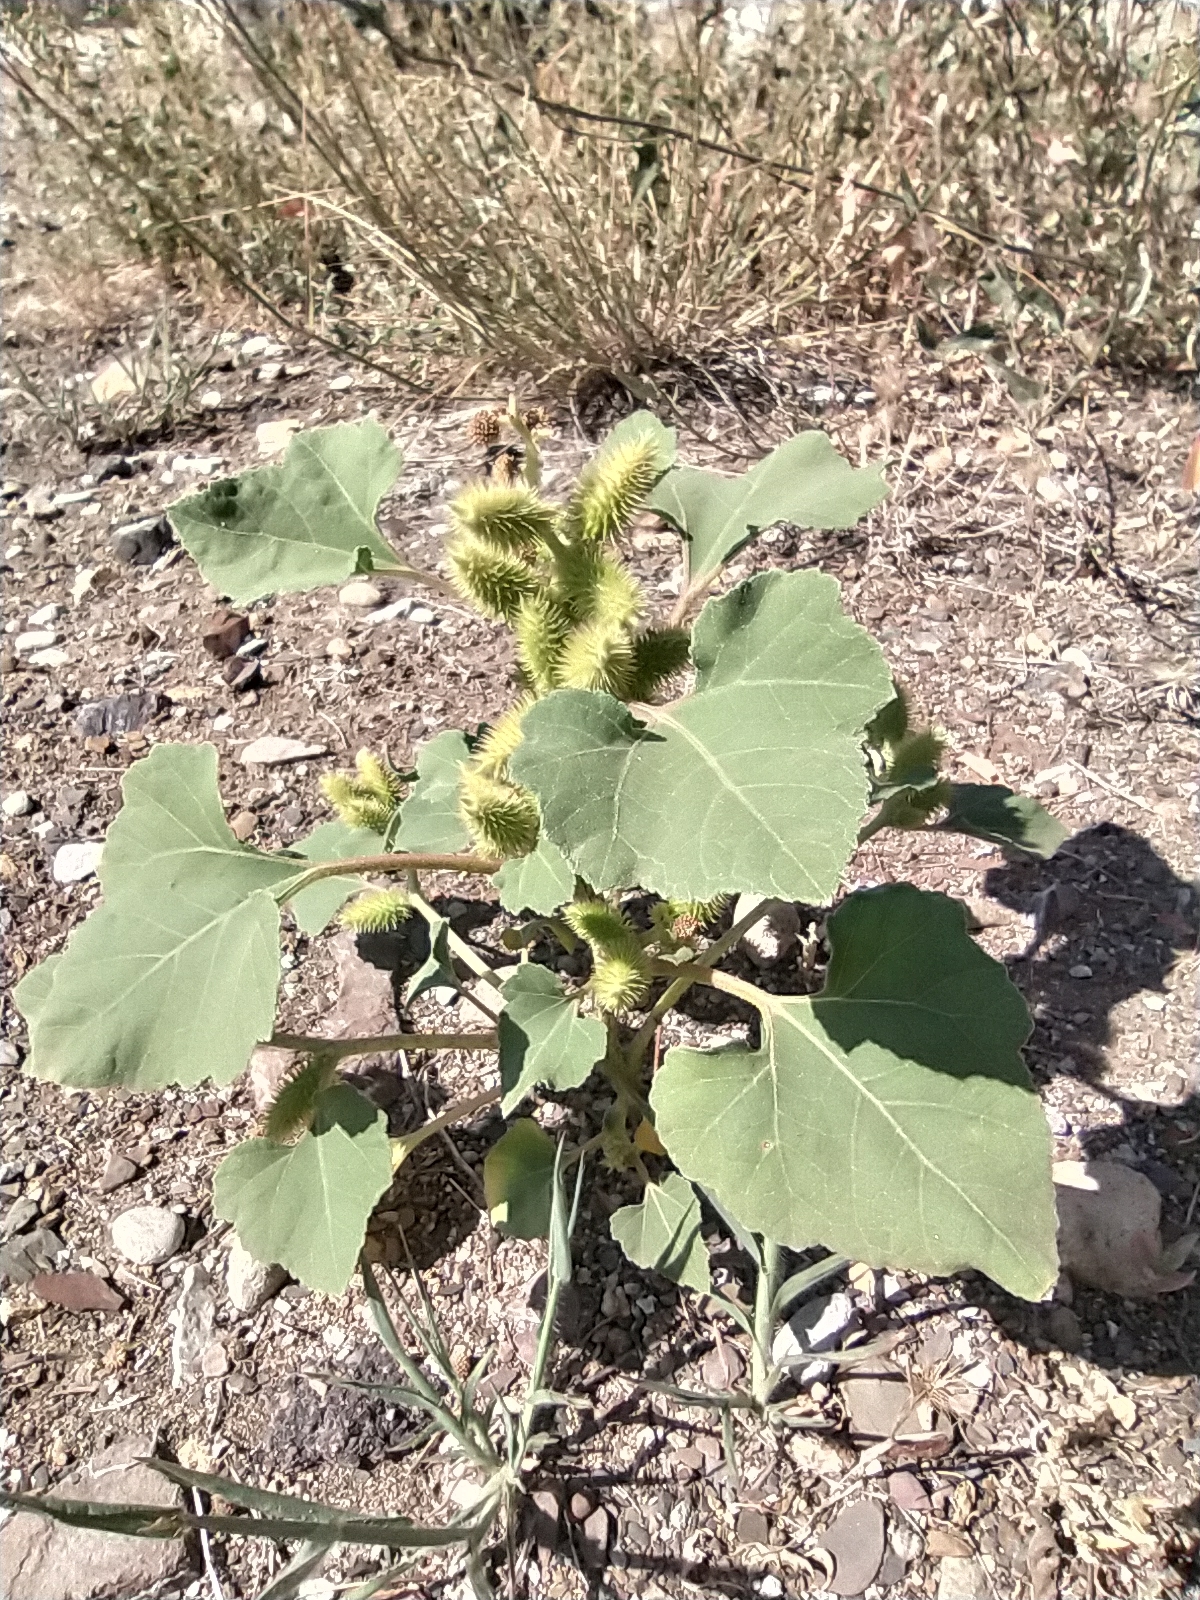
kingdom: Plantae
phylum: Tracheophyta
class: Magnoliopsida
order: Asterales
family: Asteraceae
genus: Xanthium
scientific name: Xanthium strumarium
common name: Rough cocklebur
